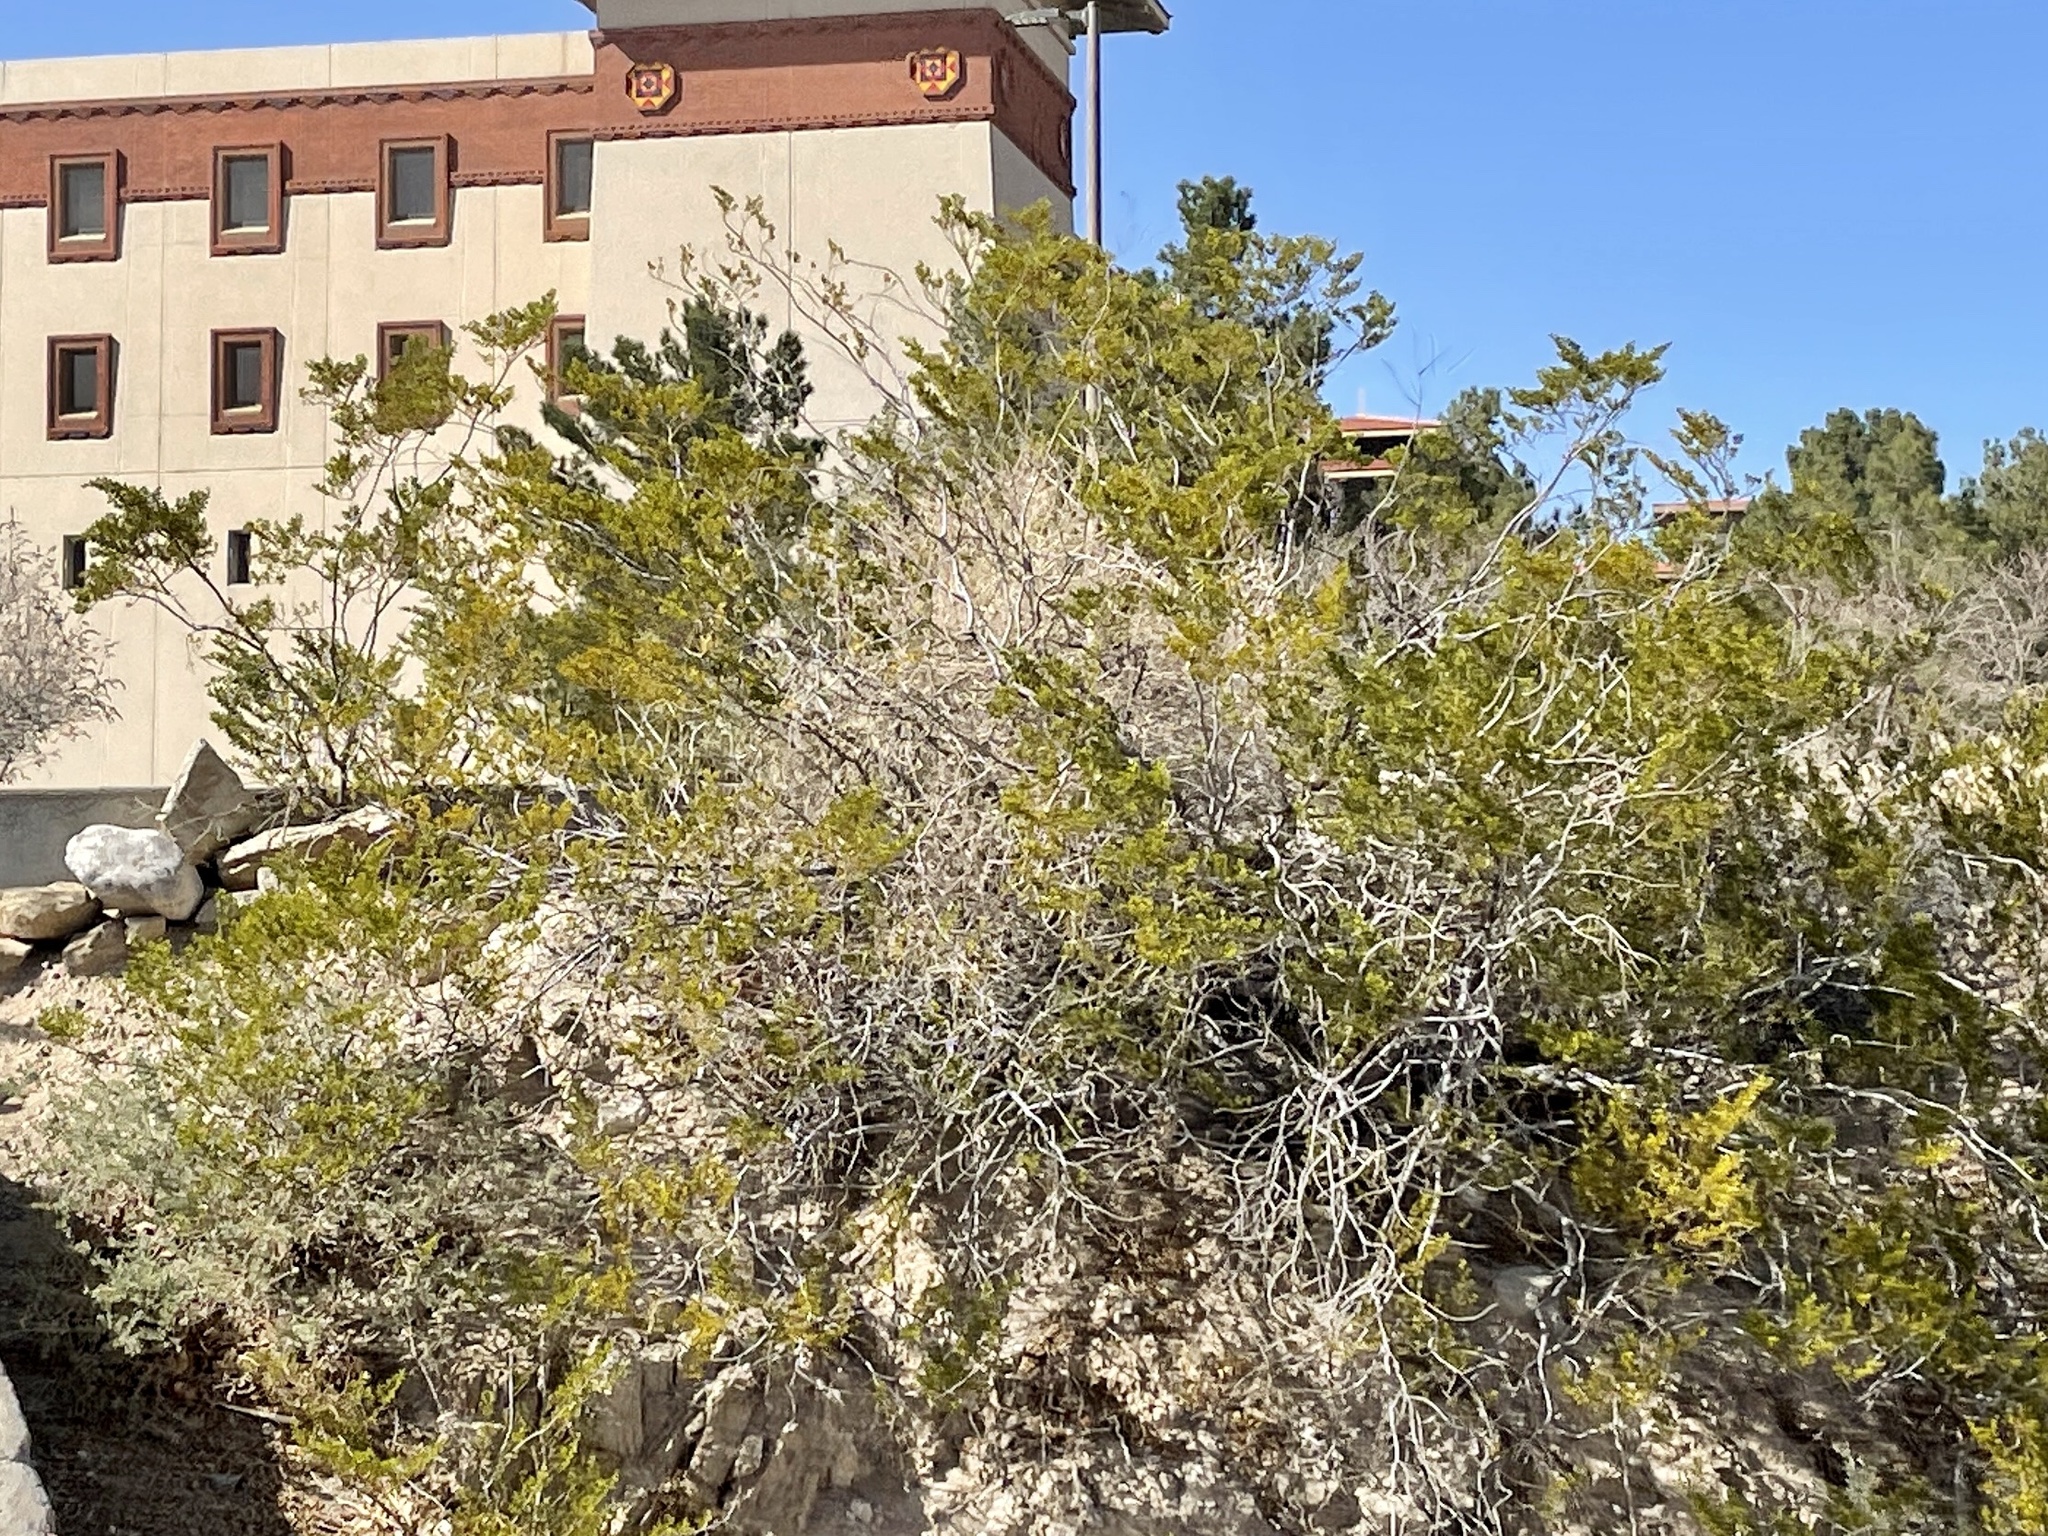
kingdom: Plantae
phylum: Tracheophyta
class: Magnoliopsida
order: Zygophyllales
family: Zygophyllaceae
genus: Larrea
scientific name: Larrea tridentata
